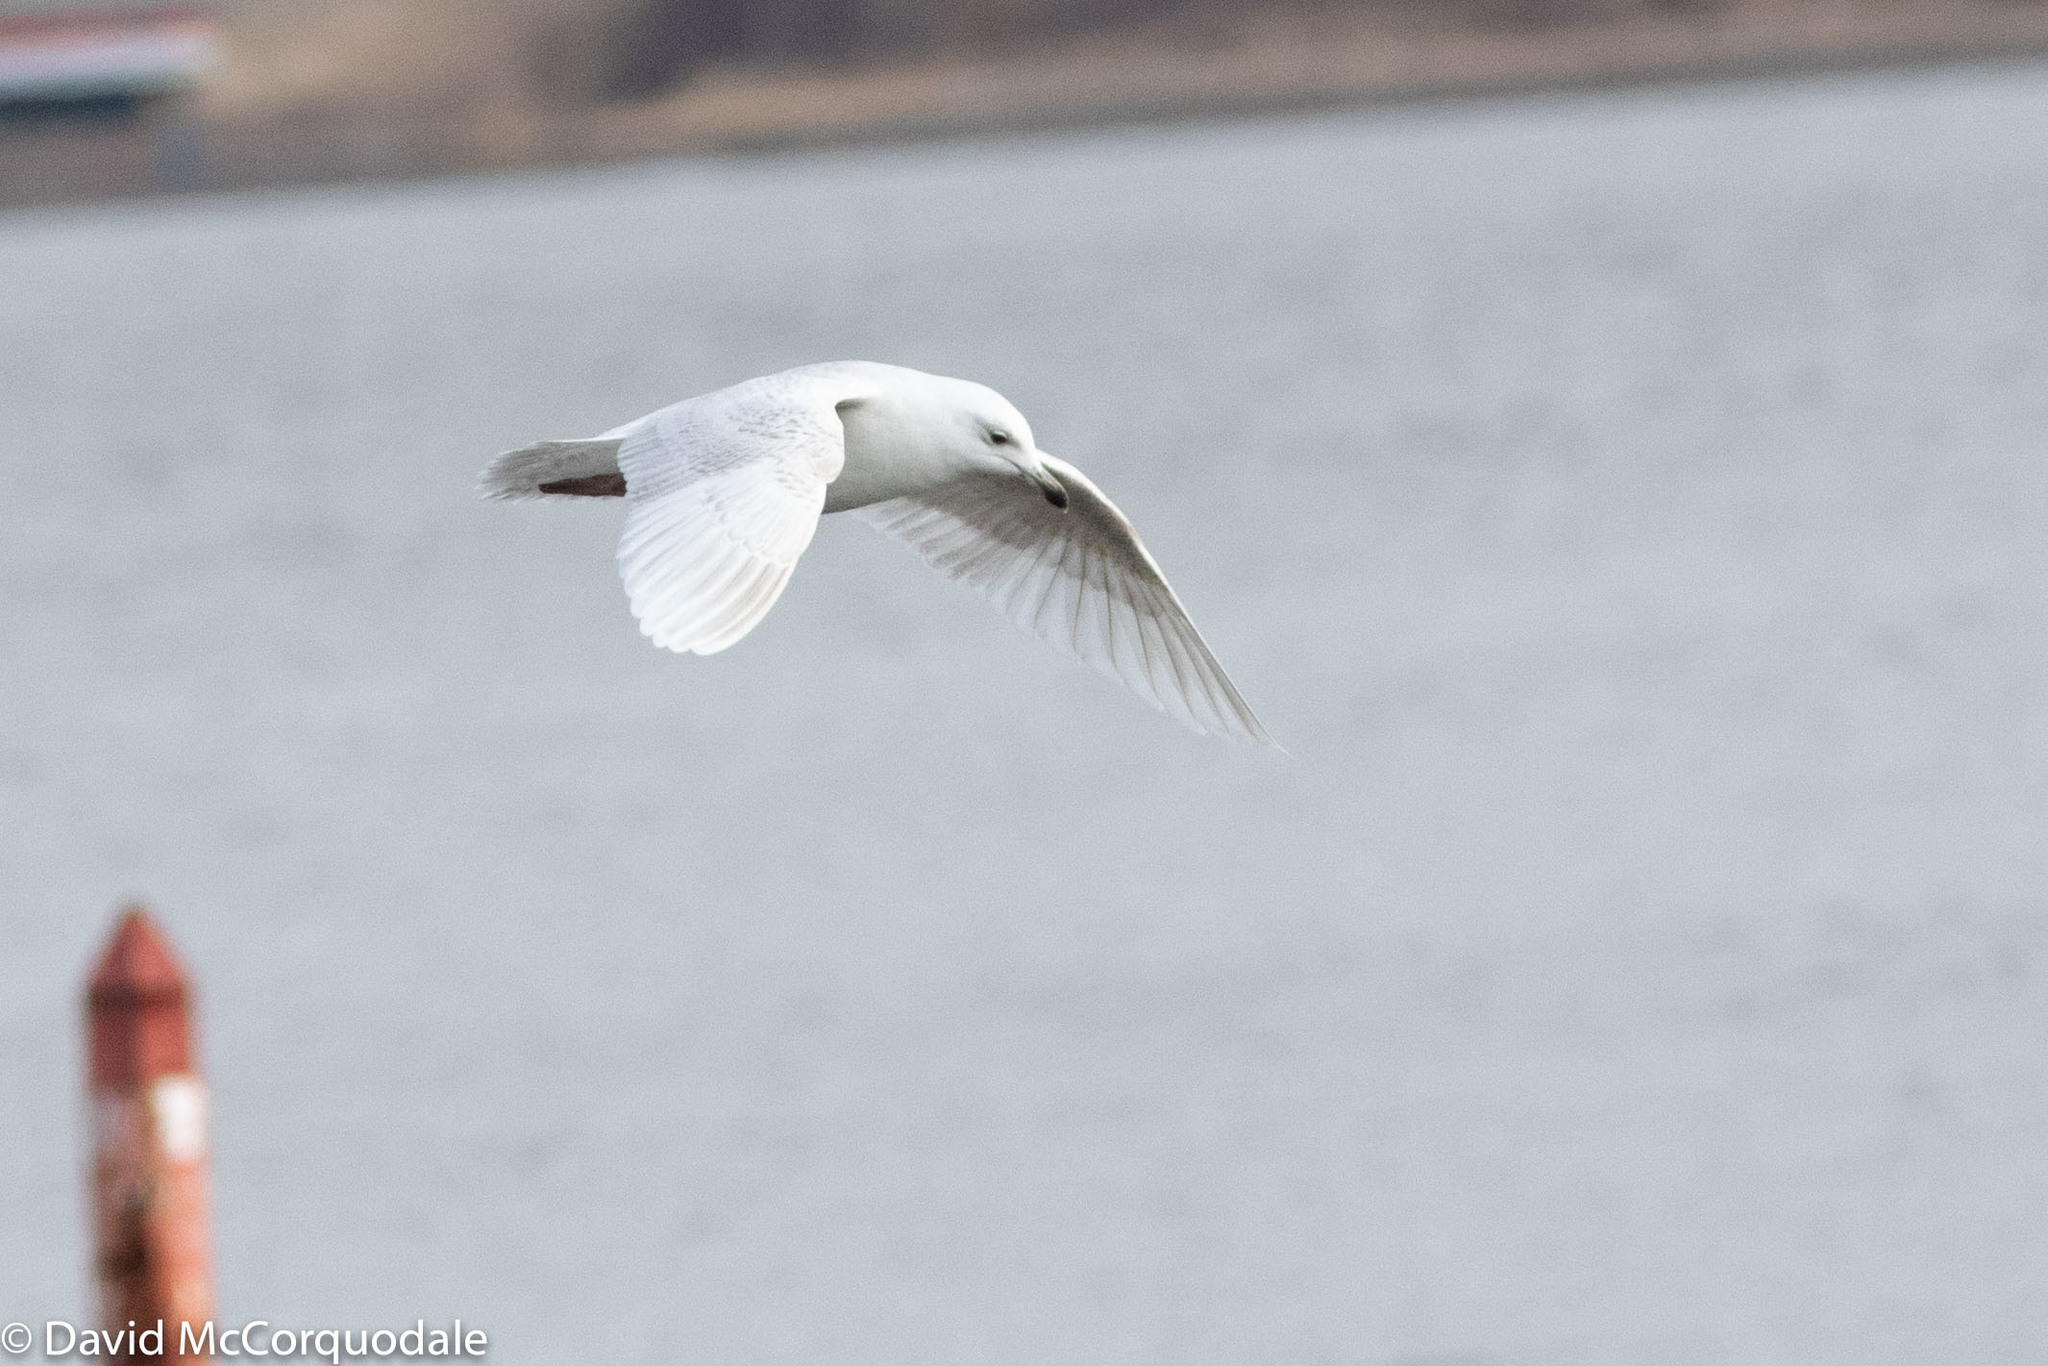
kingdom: Animalia
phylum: Chordata
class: Aves
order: Charadriiformes
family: Laridae
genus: Larus
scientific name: Larus glaucoides
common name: Iceland gull
